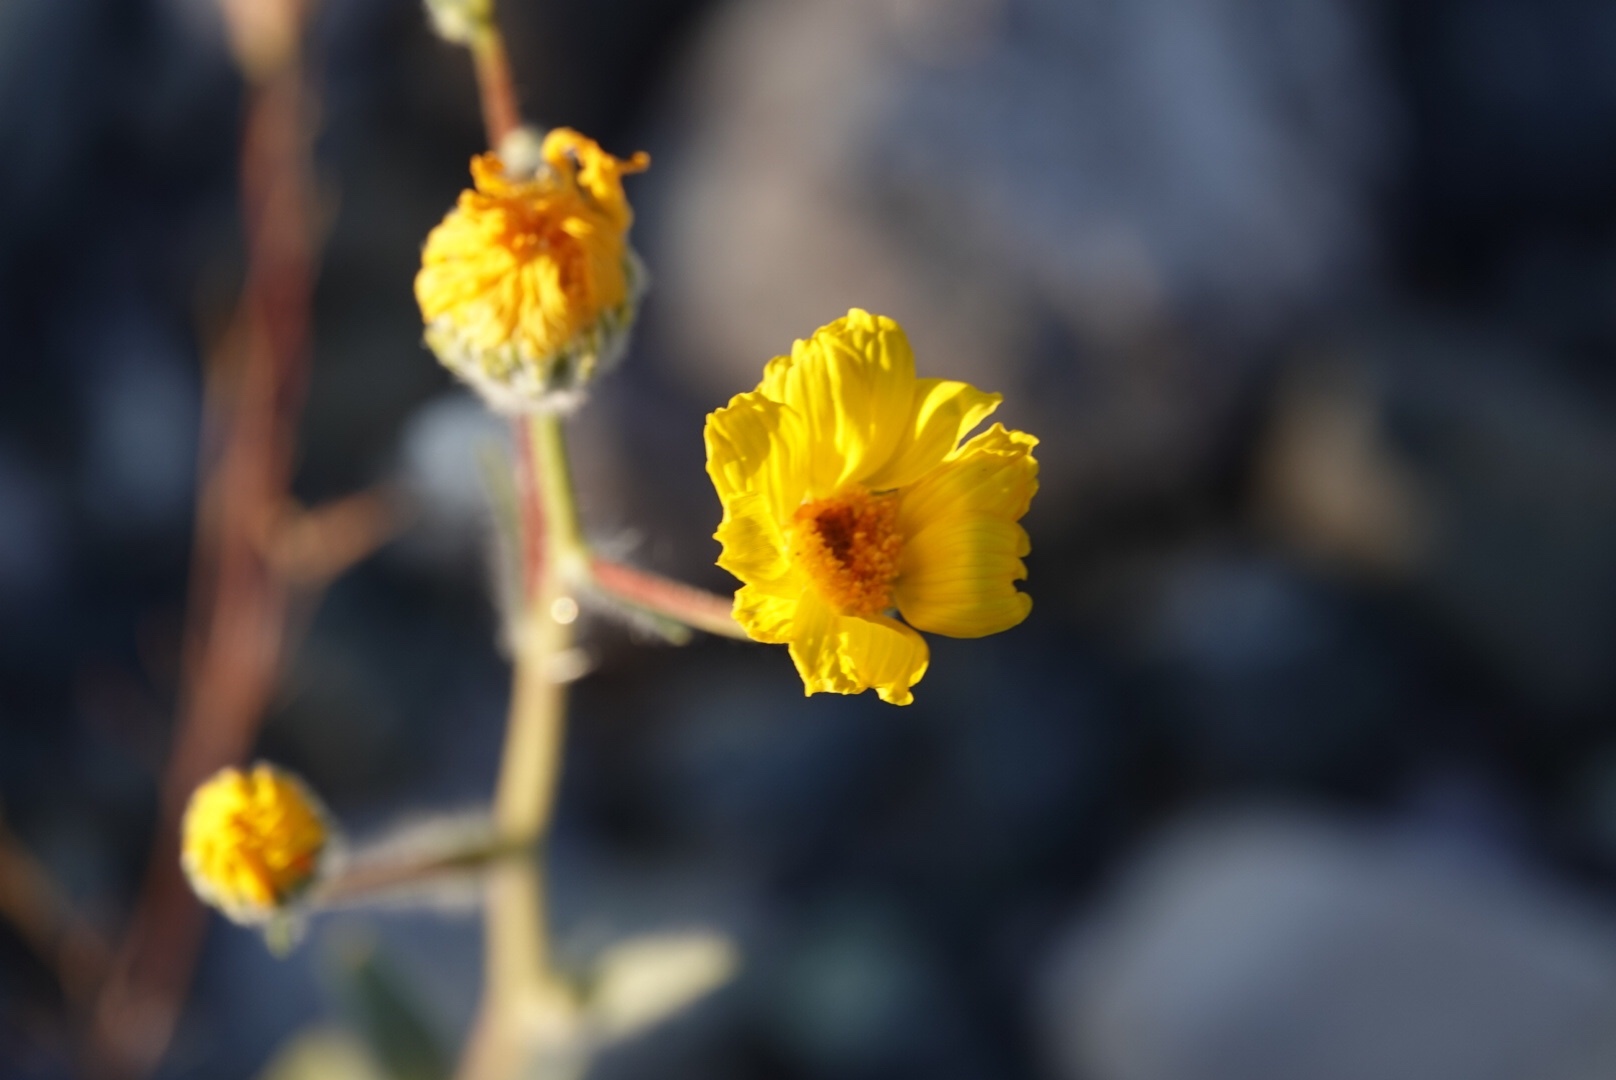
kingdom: Plantae
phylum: Tracheophyta
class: Magnoliopsida
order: Asterales
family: Asteraceae
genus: Geraea
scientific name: Geraea canescens
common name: Desert-gold
